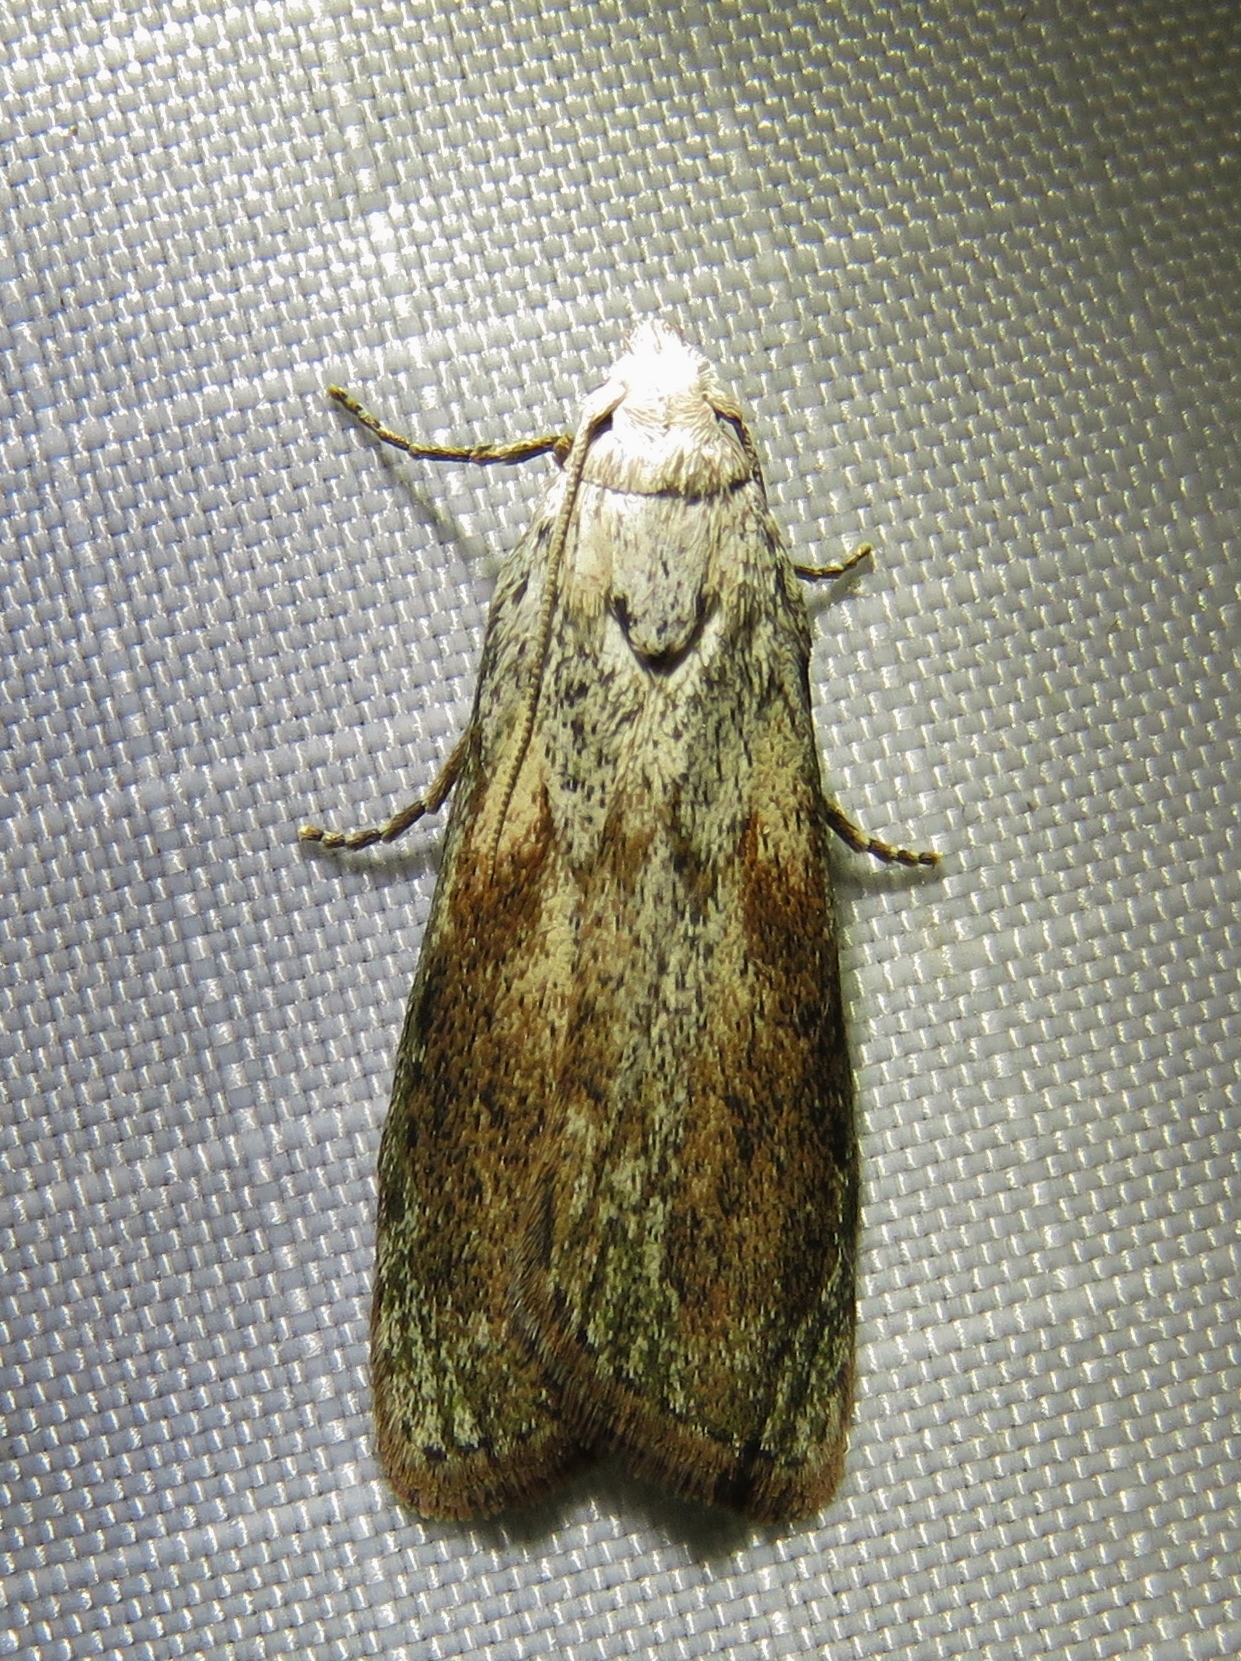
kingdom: Animalia
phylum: Arthropoda
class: Insecta
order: Lepidoptera
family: Pyralidae
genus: Aphomia
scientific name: Aphomia sociella
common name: Bee moth
